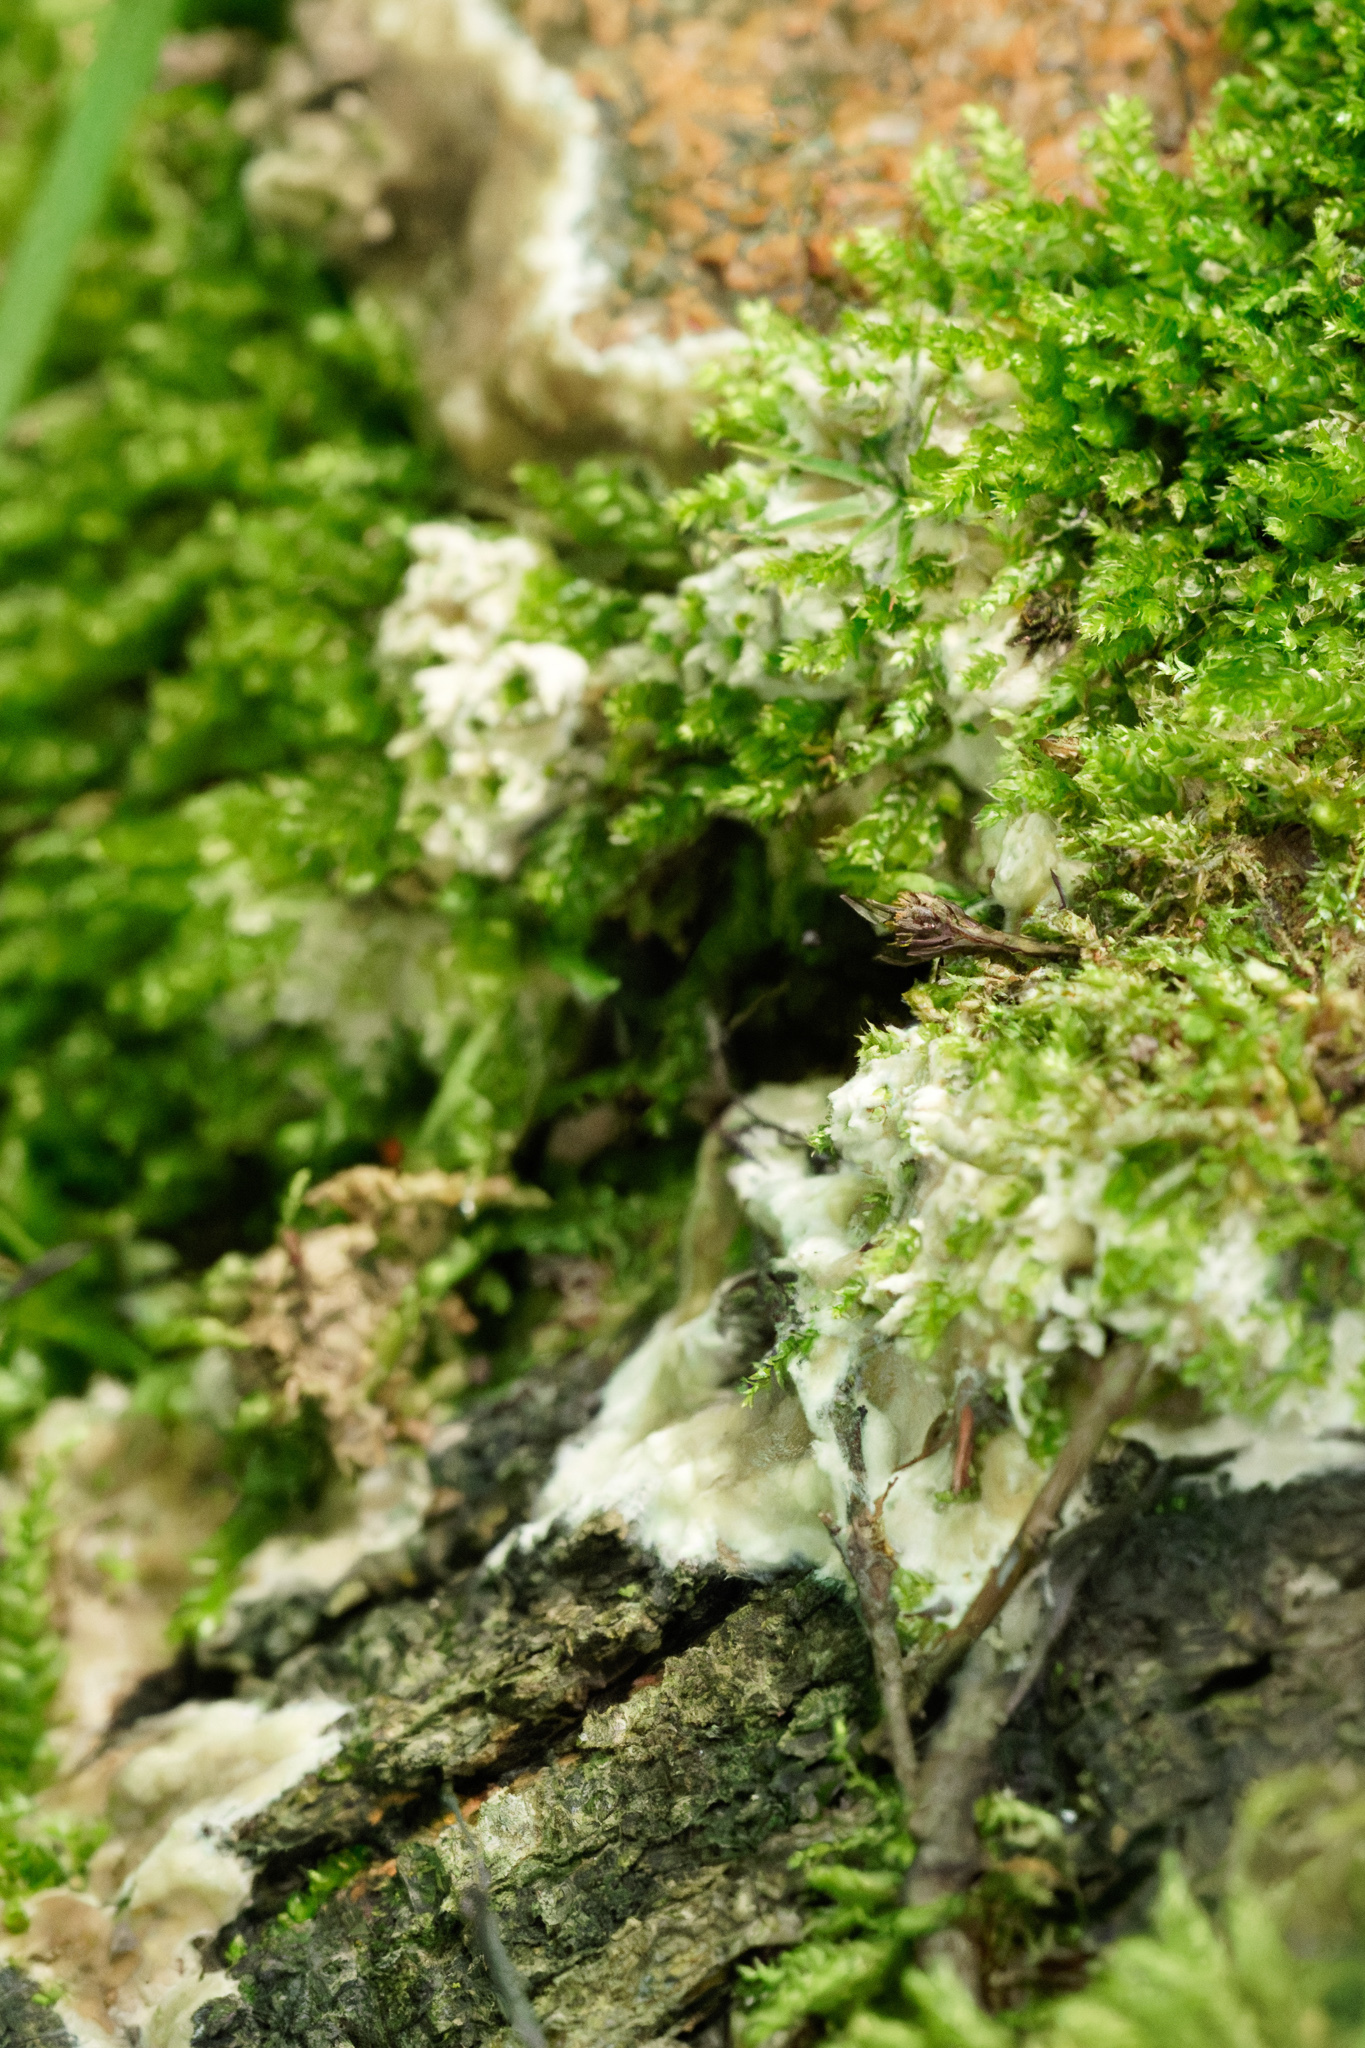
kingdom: Fungi
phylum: Basidiomycota
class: Agaricomycetes
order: Sebacinales
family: Sebacinaceae
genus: Sebacina
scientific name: Sebacina incrustans
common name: Enveloping crust
